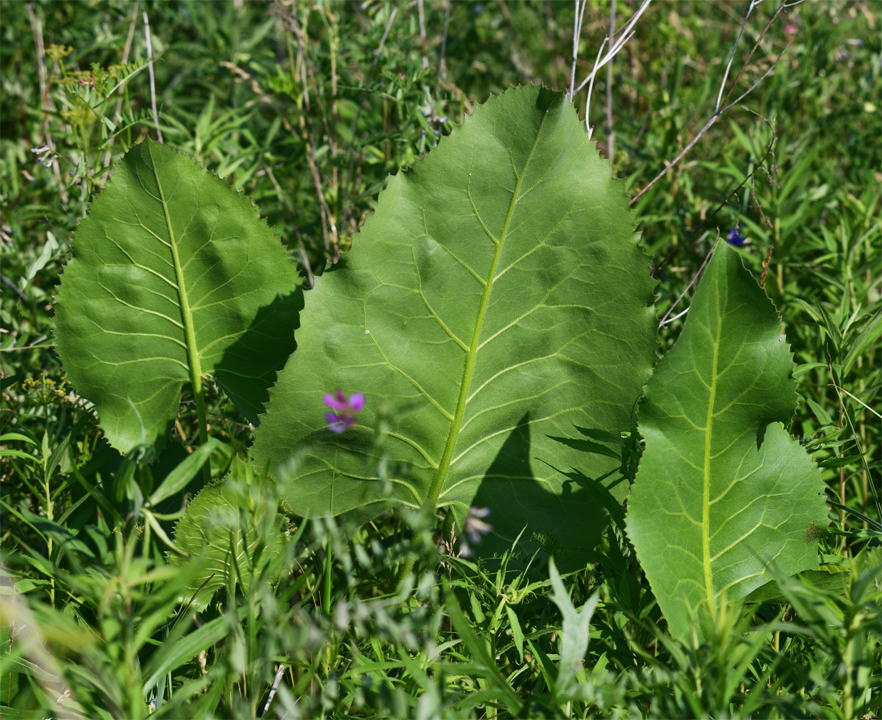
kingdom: Plantae
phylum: Tracheophyta
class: Magnoliopsida
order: Asterales
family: Asteraceae
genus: Silphium
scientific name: Silphium terebinthinaceum
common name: Basal-leaf rosinweed
